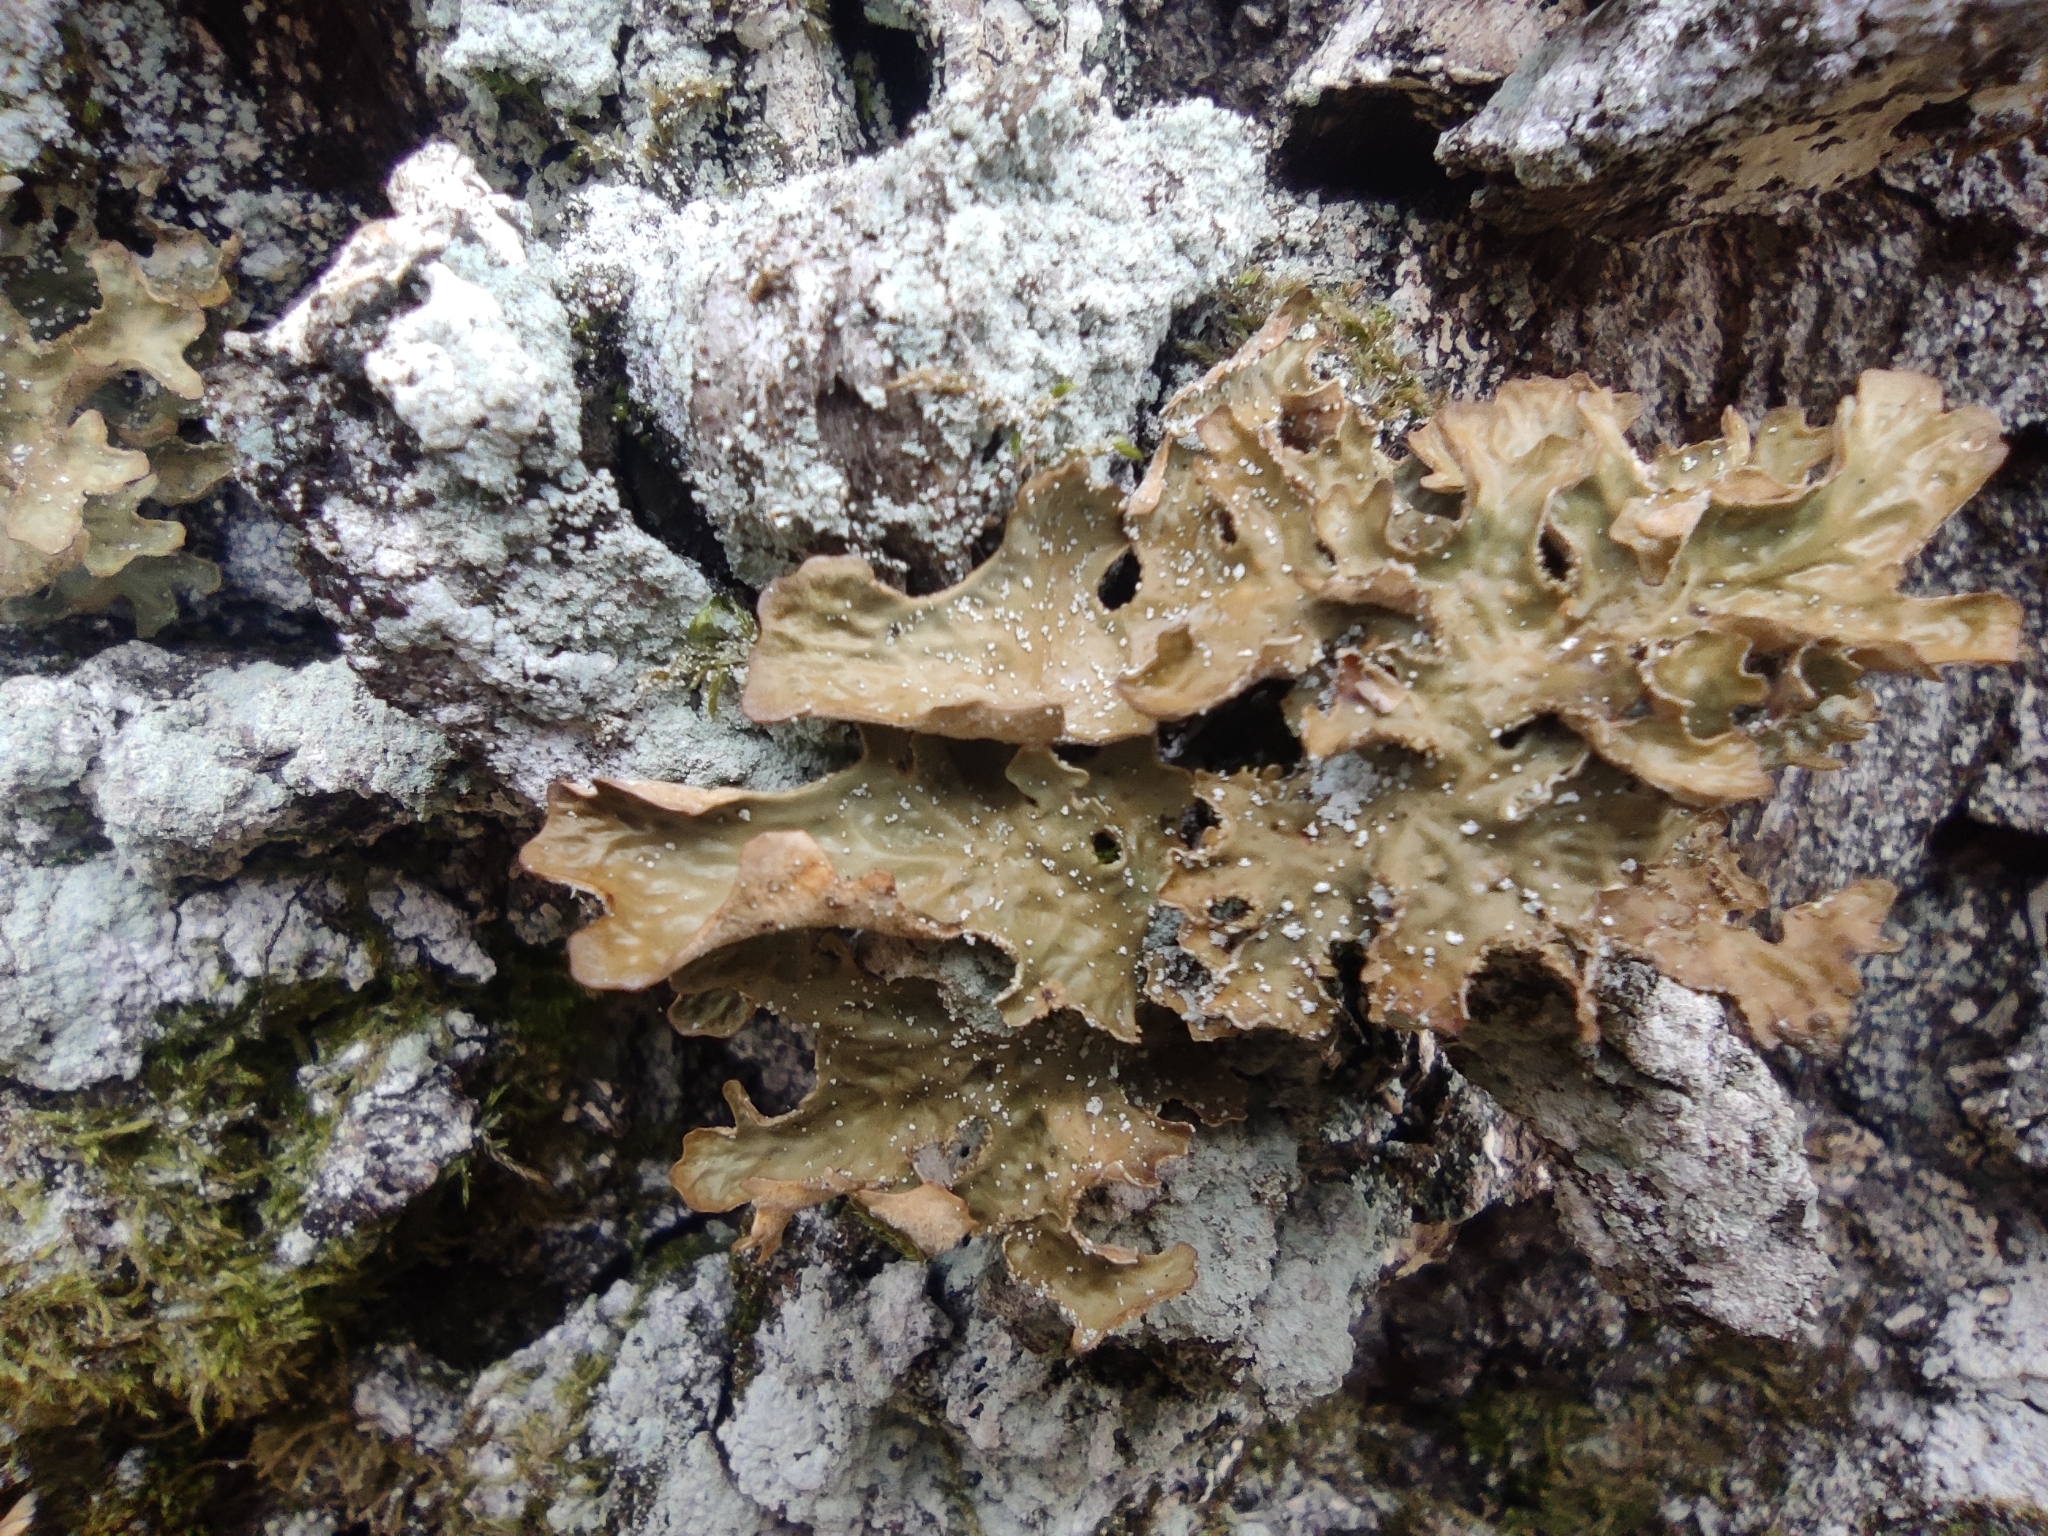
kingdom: Fungi
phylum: Ascomycota
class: Lecanoromycetes
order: Peltigerales
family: Lobariaceae
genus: Lobaria
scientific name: Lobaria pulmonaria
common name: Lungwort
